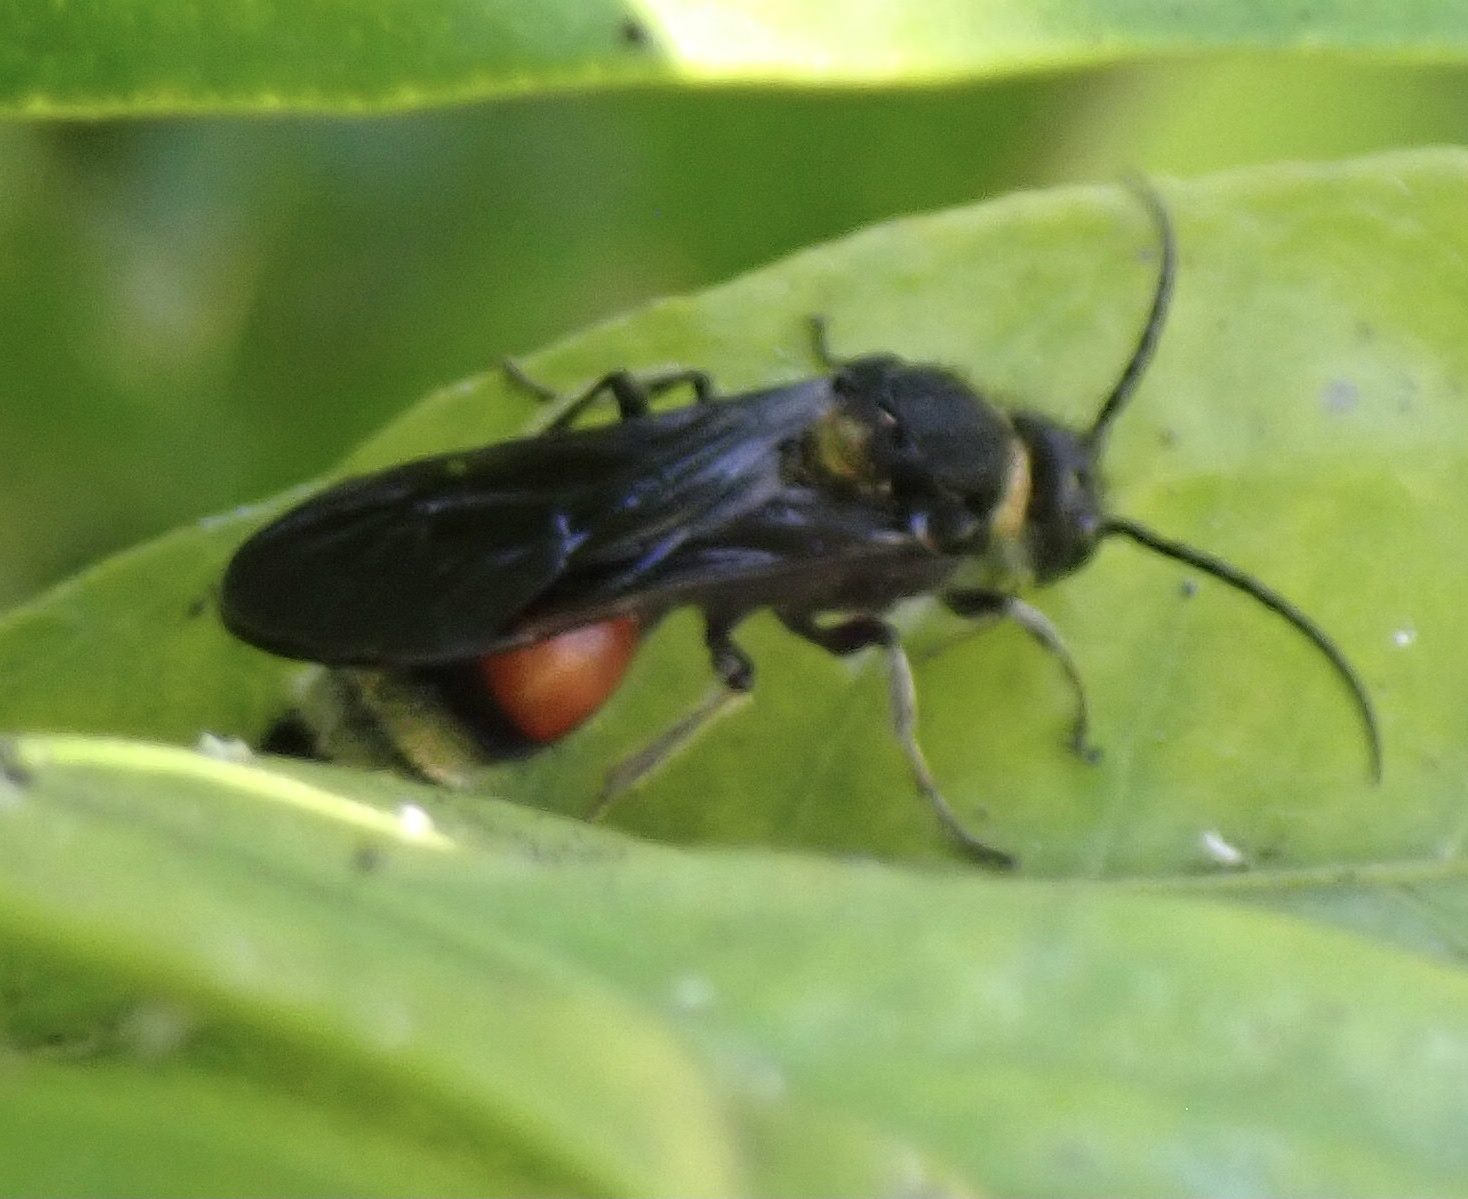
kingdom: Animalia
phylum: Arthropoda
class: Insecta
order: Hymenoptera
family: Mutillidae
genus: Nemka
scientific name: Nemka viduata
